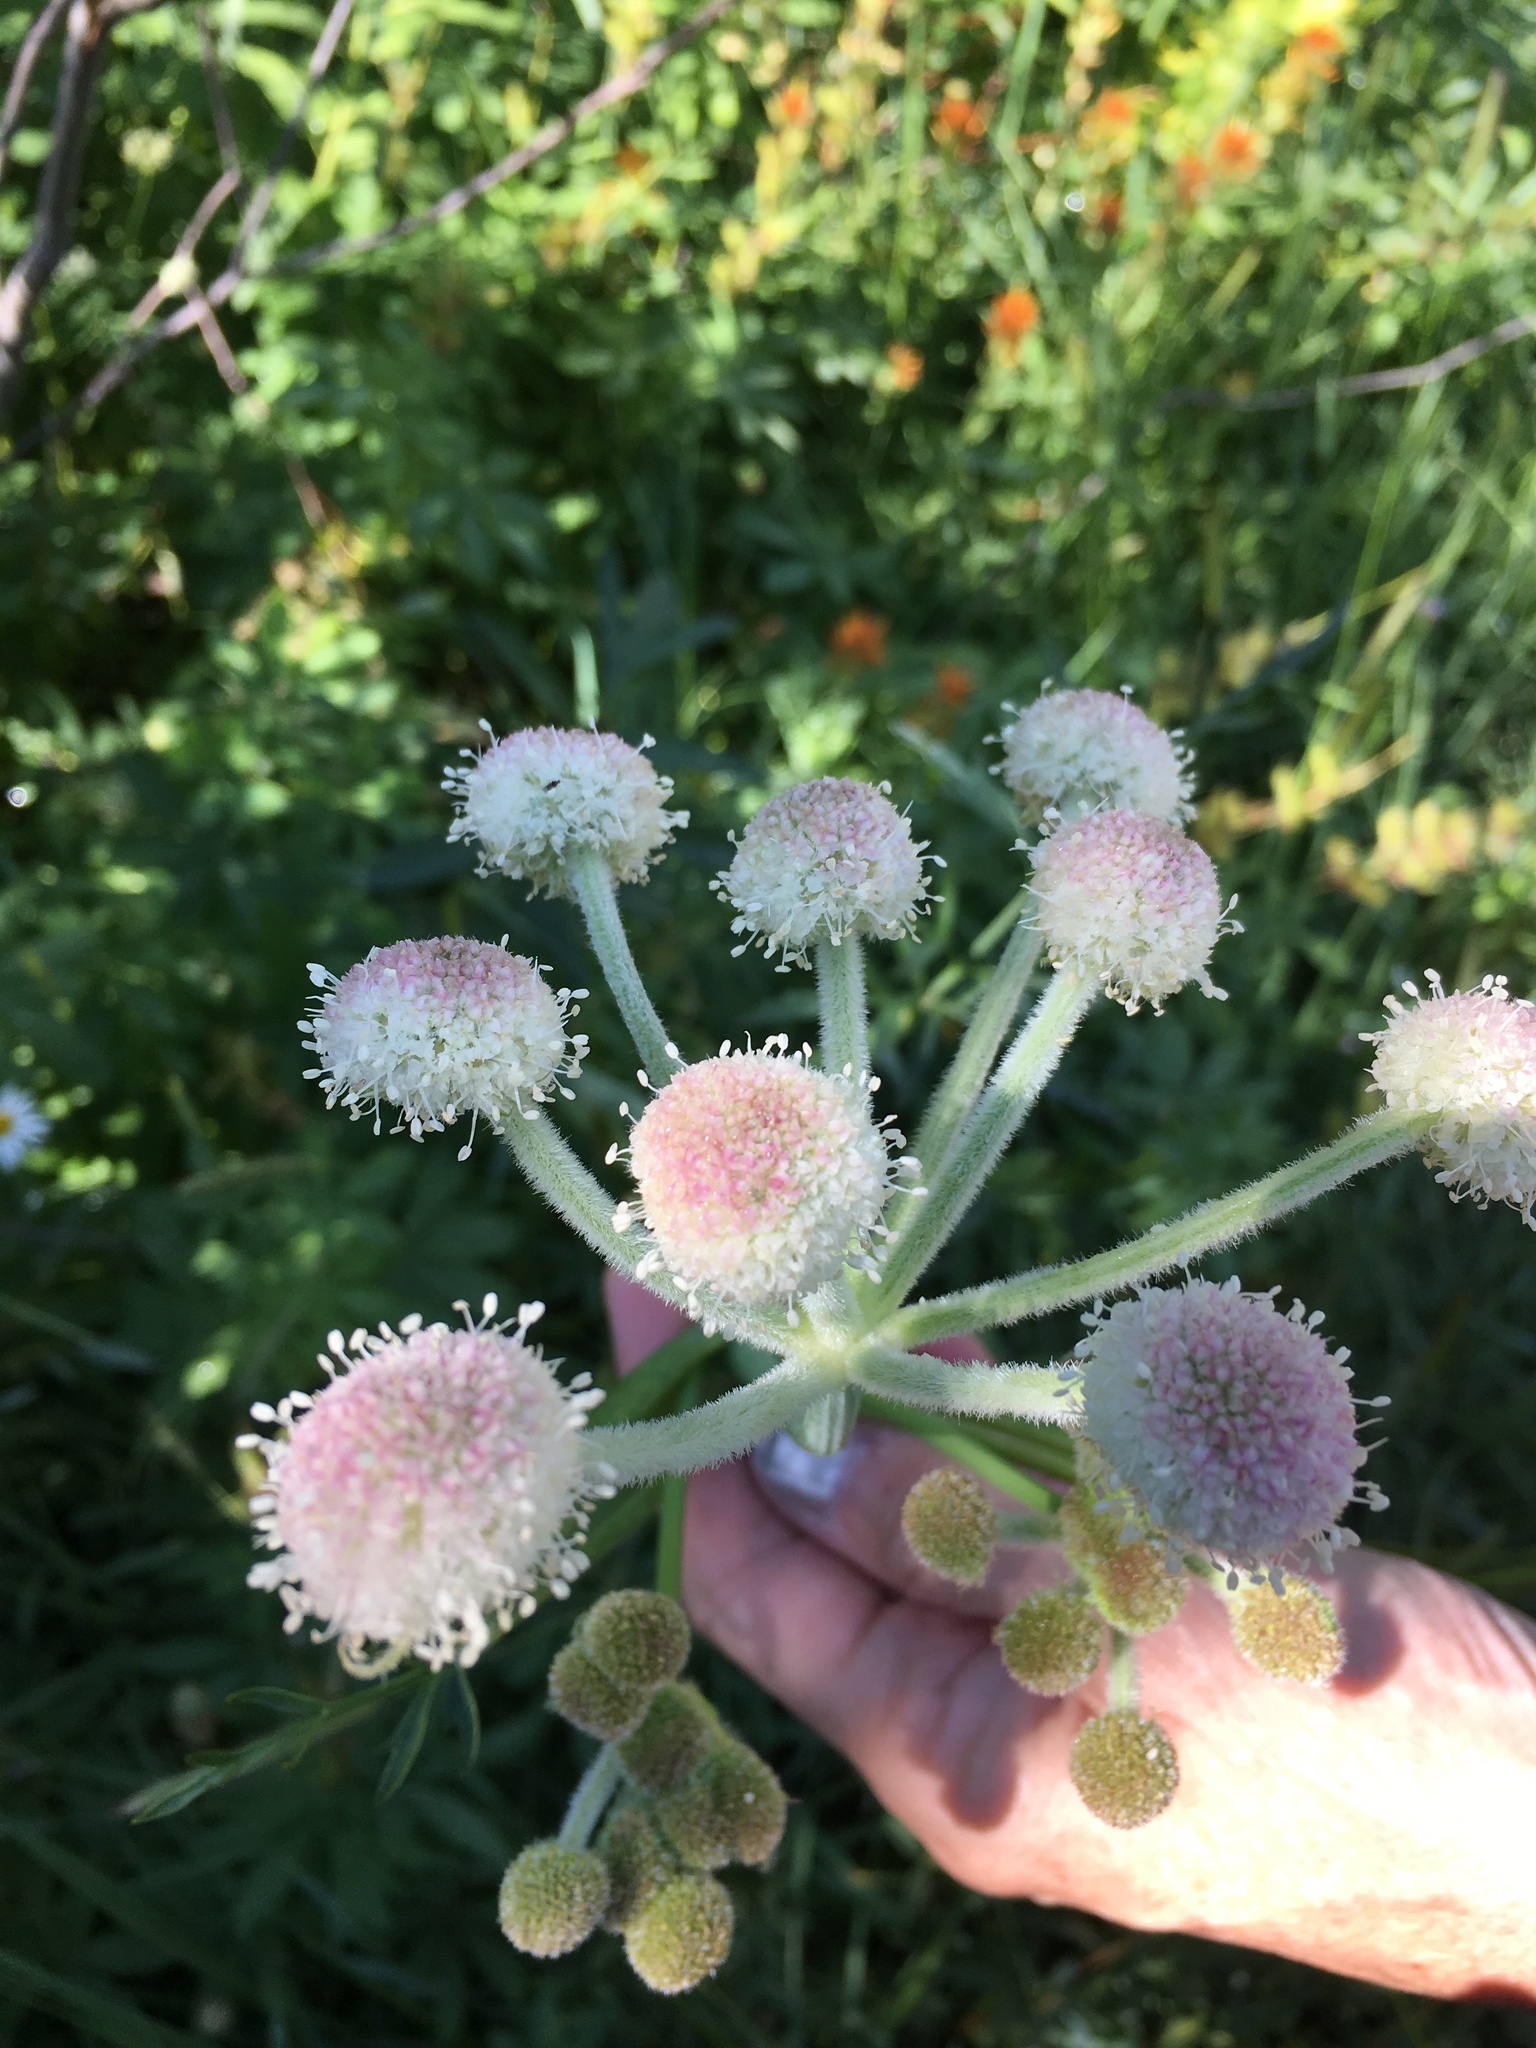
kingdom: Plantae
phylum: Tracheophyta
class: Magnoliopsida
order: Apiales
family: Apiaceae
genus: Angelica
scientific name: Angelica capitellata
